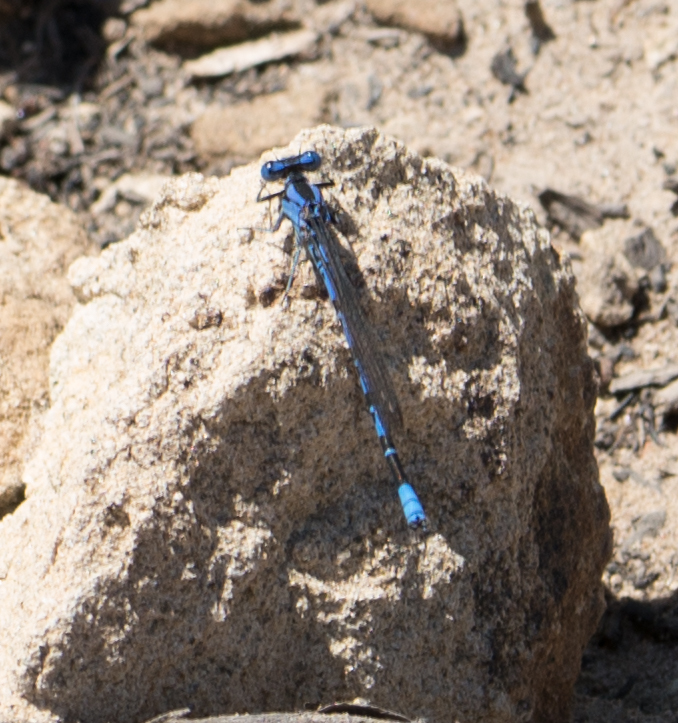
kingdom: Animalia
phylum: Arthropoda
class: Insecta
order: Odonata
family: Coenagrionidae
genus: Argia
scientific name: Argia vivida
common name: Vivid dancer
